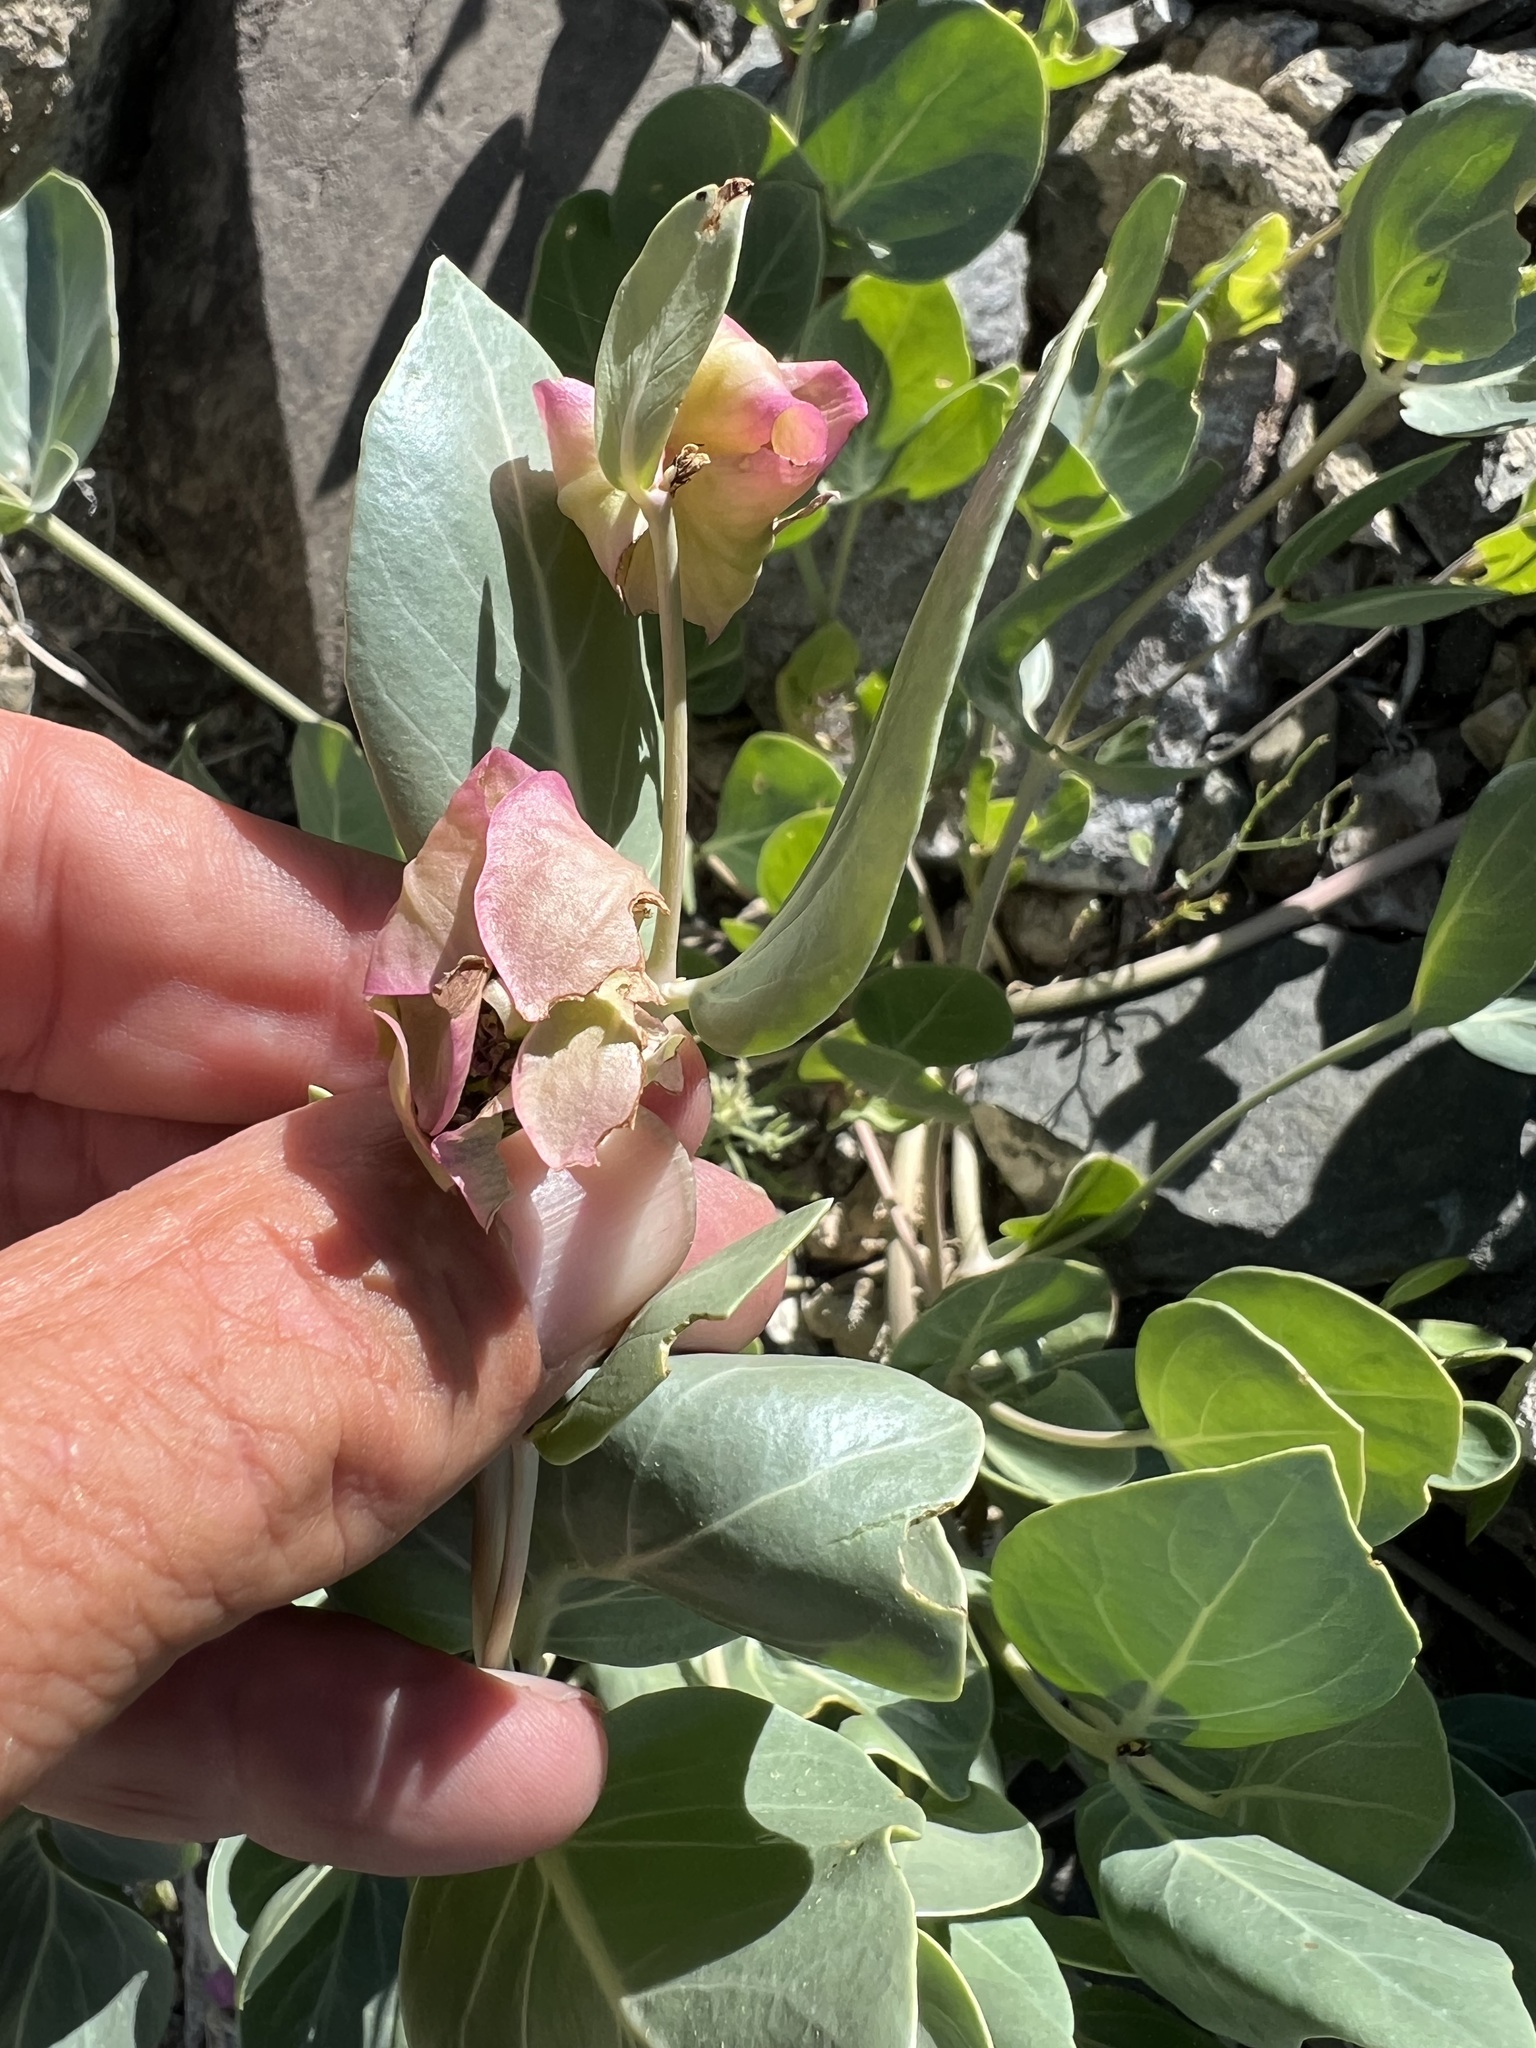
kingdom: Plantae
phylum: Tracheophyta
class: Magnoliopsida
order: Caryophyllales
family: Nyctaginaceae
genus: Mirabilis
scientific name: Mirabilis alipes
